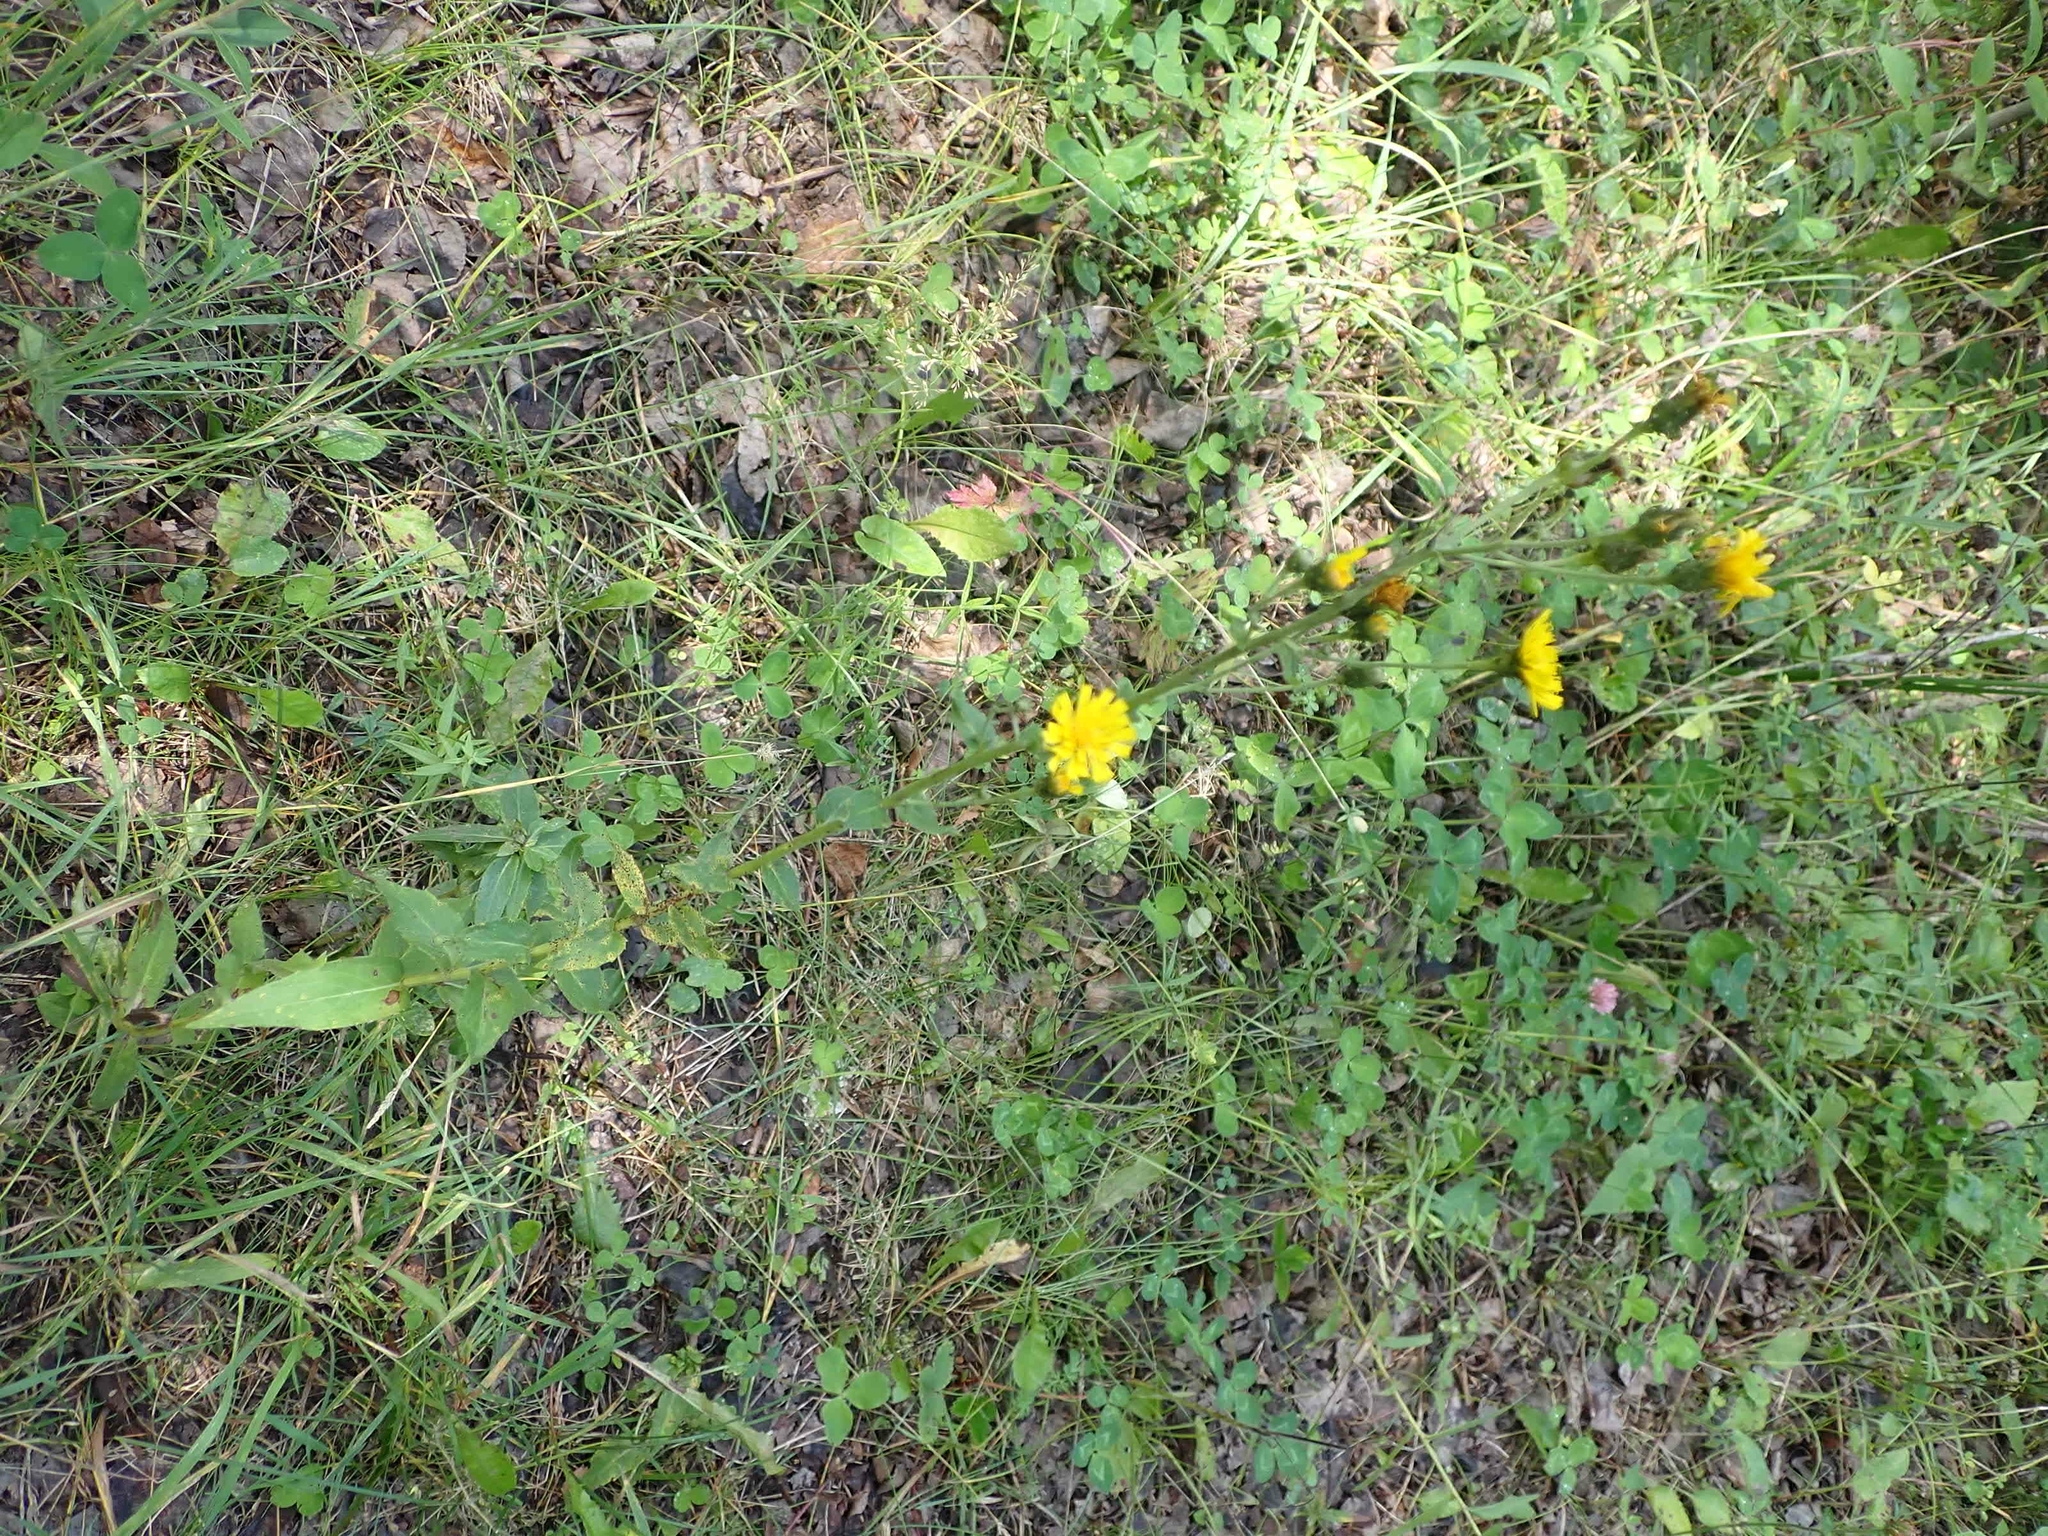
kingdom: Plantae
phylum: Tracheophyta
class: Magnoliopsida
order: Asterales
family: Asteraceae
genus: Hieracium
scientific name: Hieracium umbellatum
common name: Northern hawkweed
